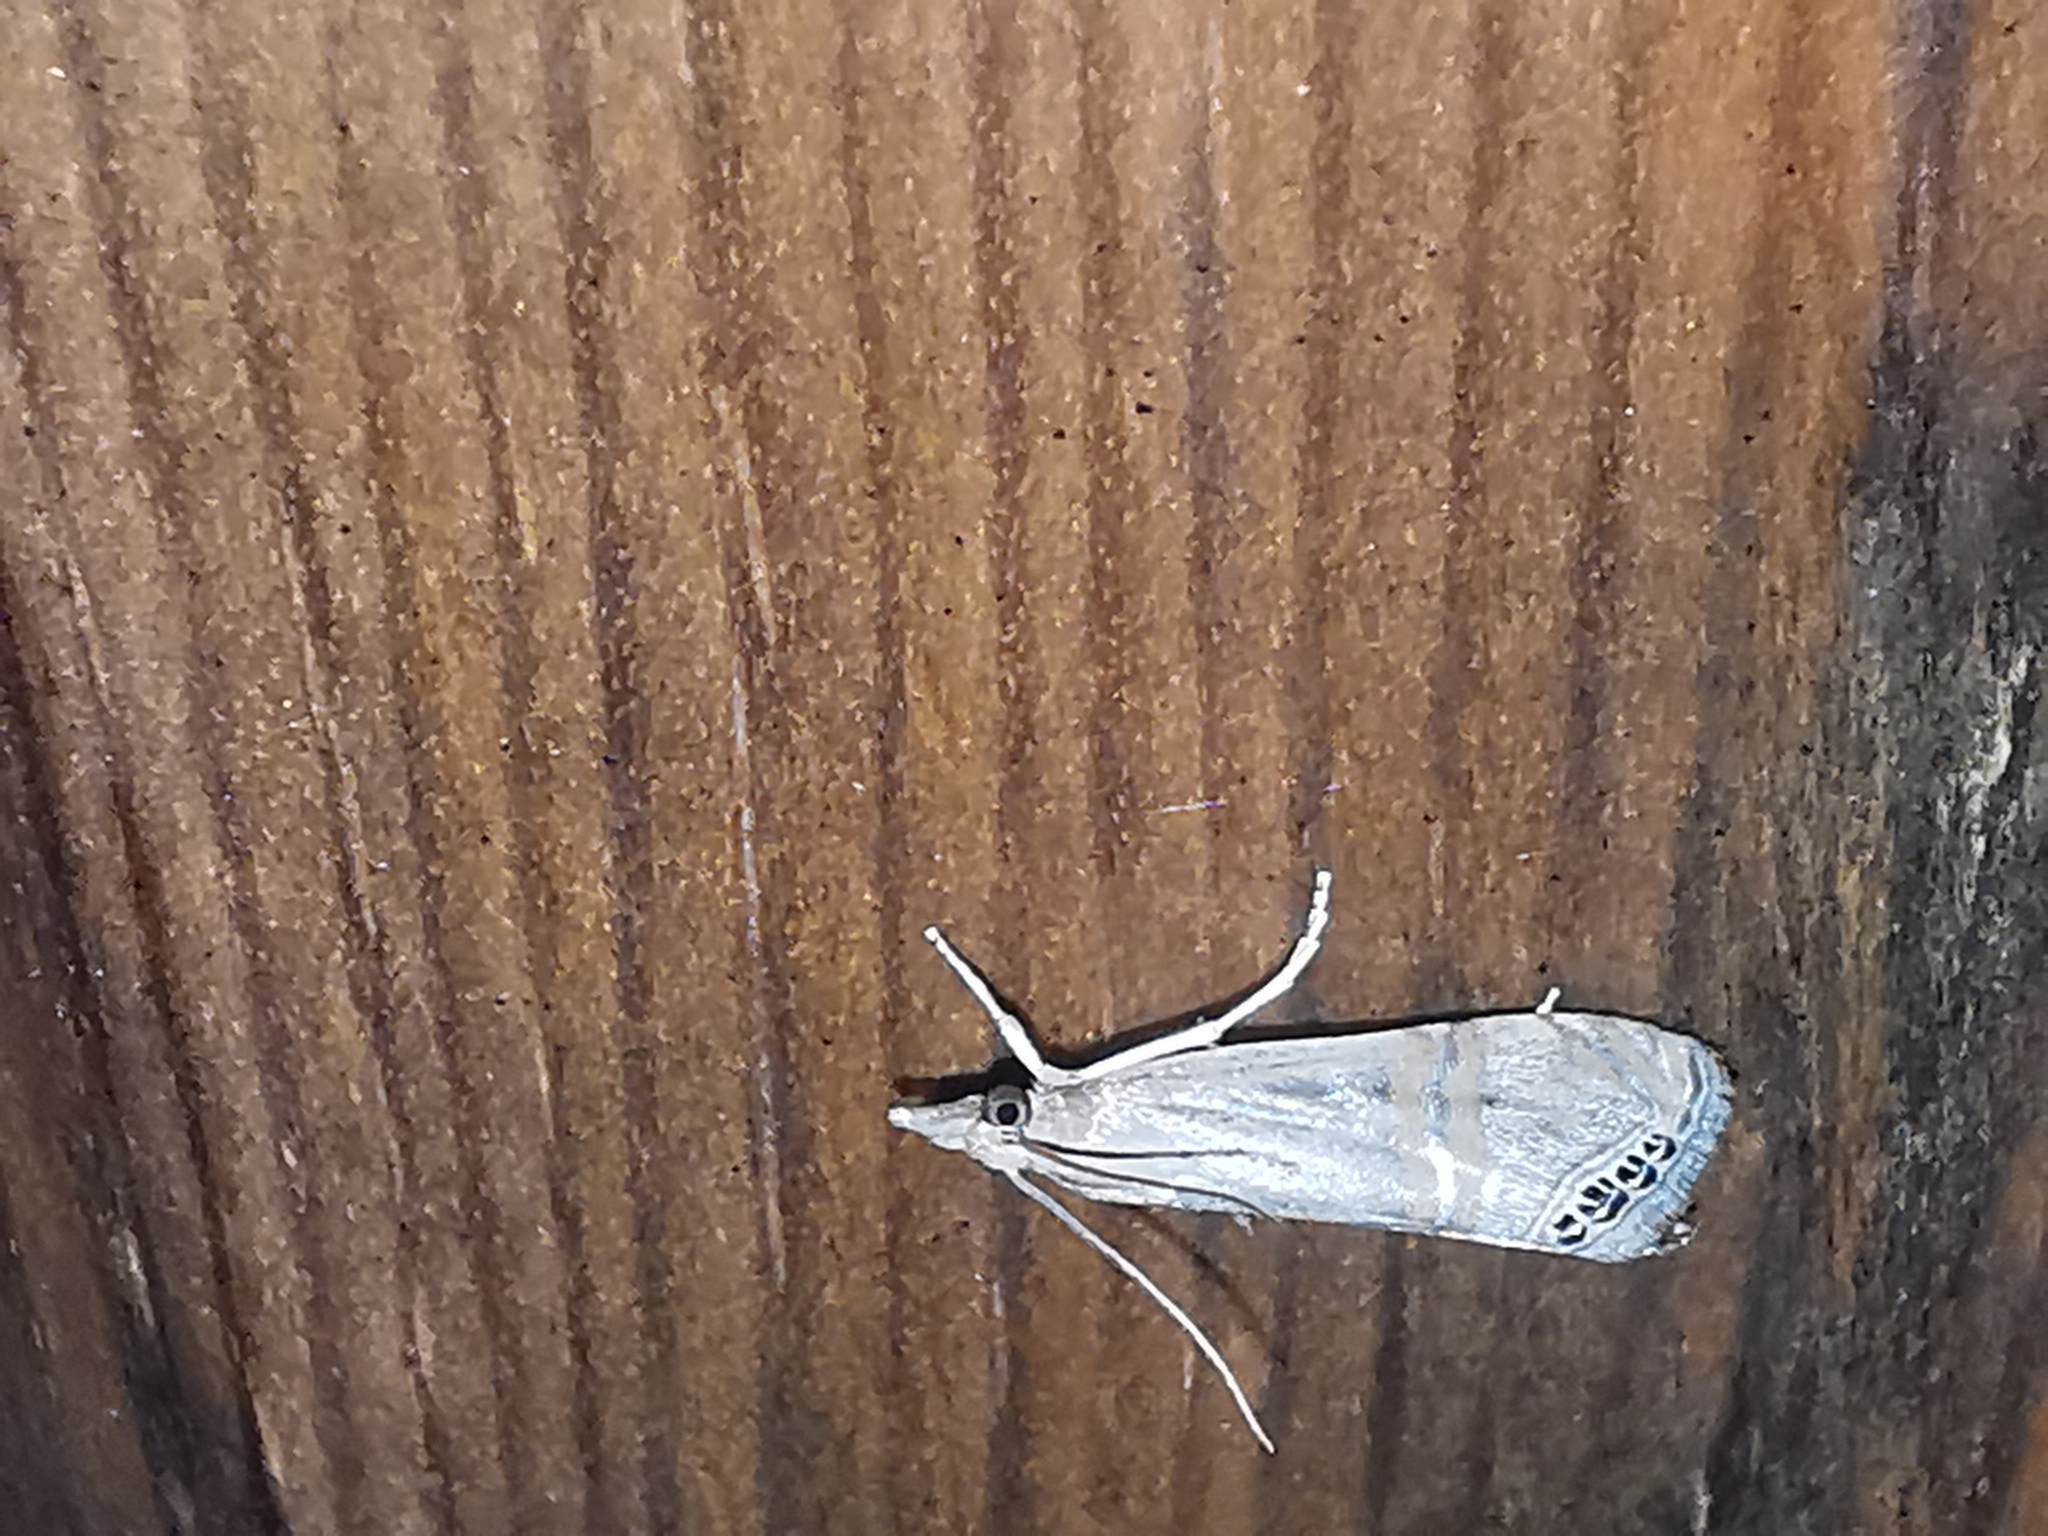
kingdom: Animalia
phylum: Arthropoda
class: Insecta
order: Lepidoptera
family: Crambidae
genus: Euchromius
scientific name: Euchromius ocellea
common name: Necklace veneer moth
